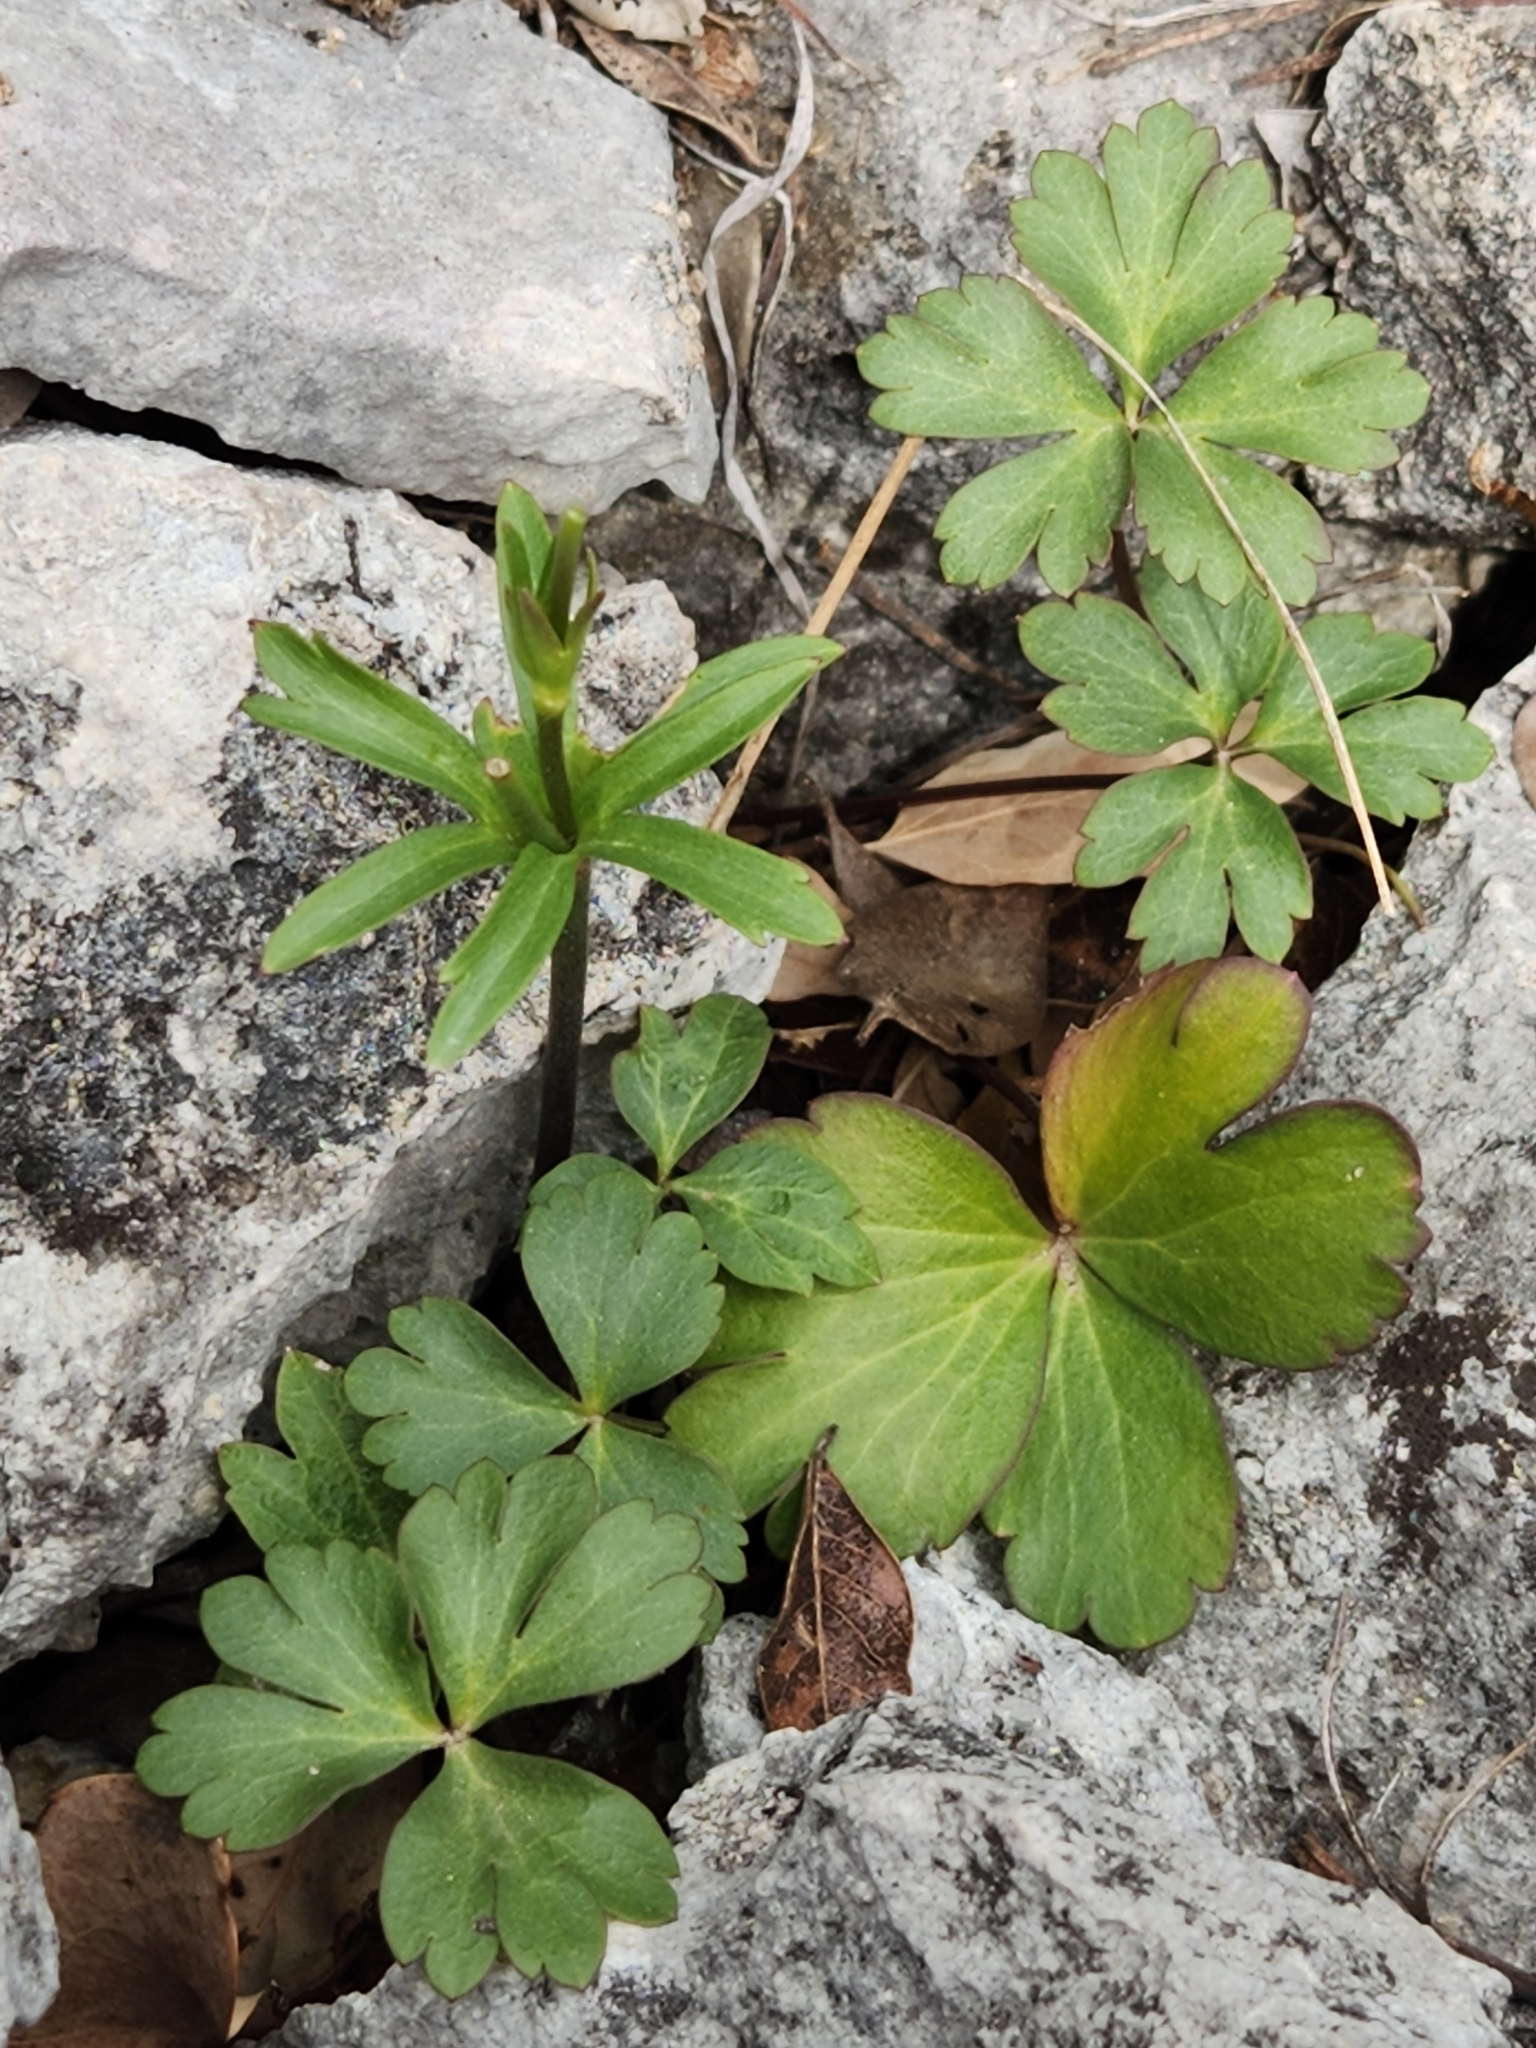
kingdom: Plantae
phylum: Tracheophyta
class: Magnoliopsida
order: Ranunculales
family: Ranunculaceae
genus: Anemone
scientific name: Anemone edwardsiana
